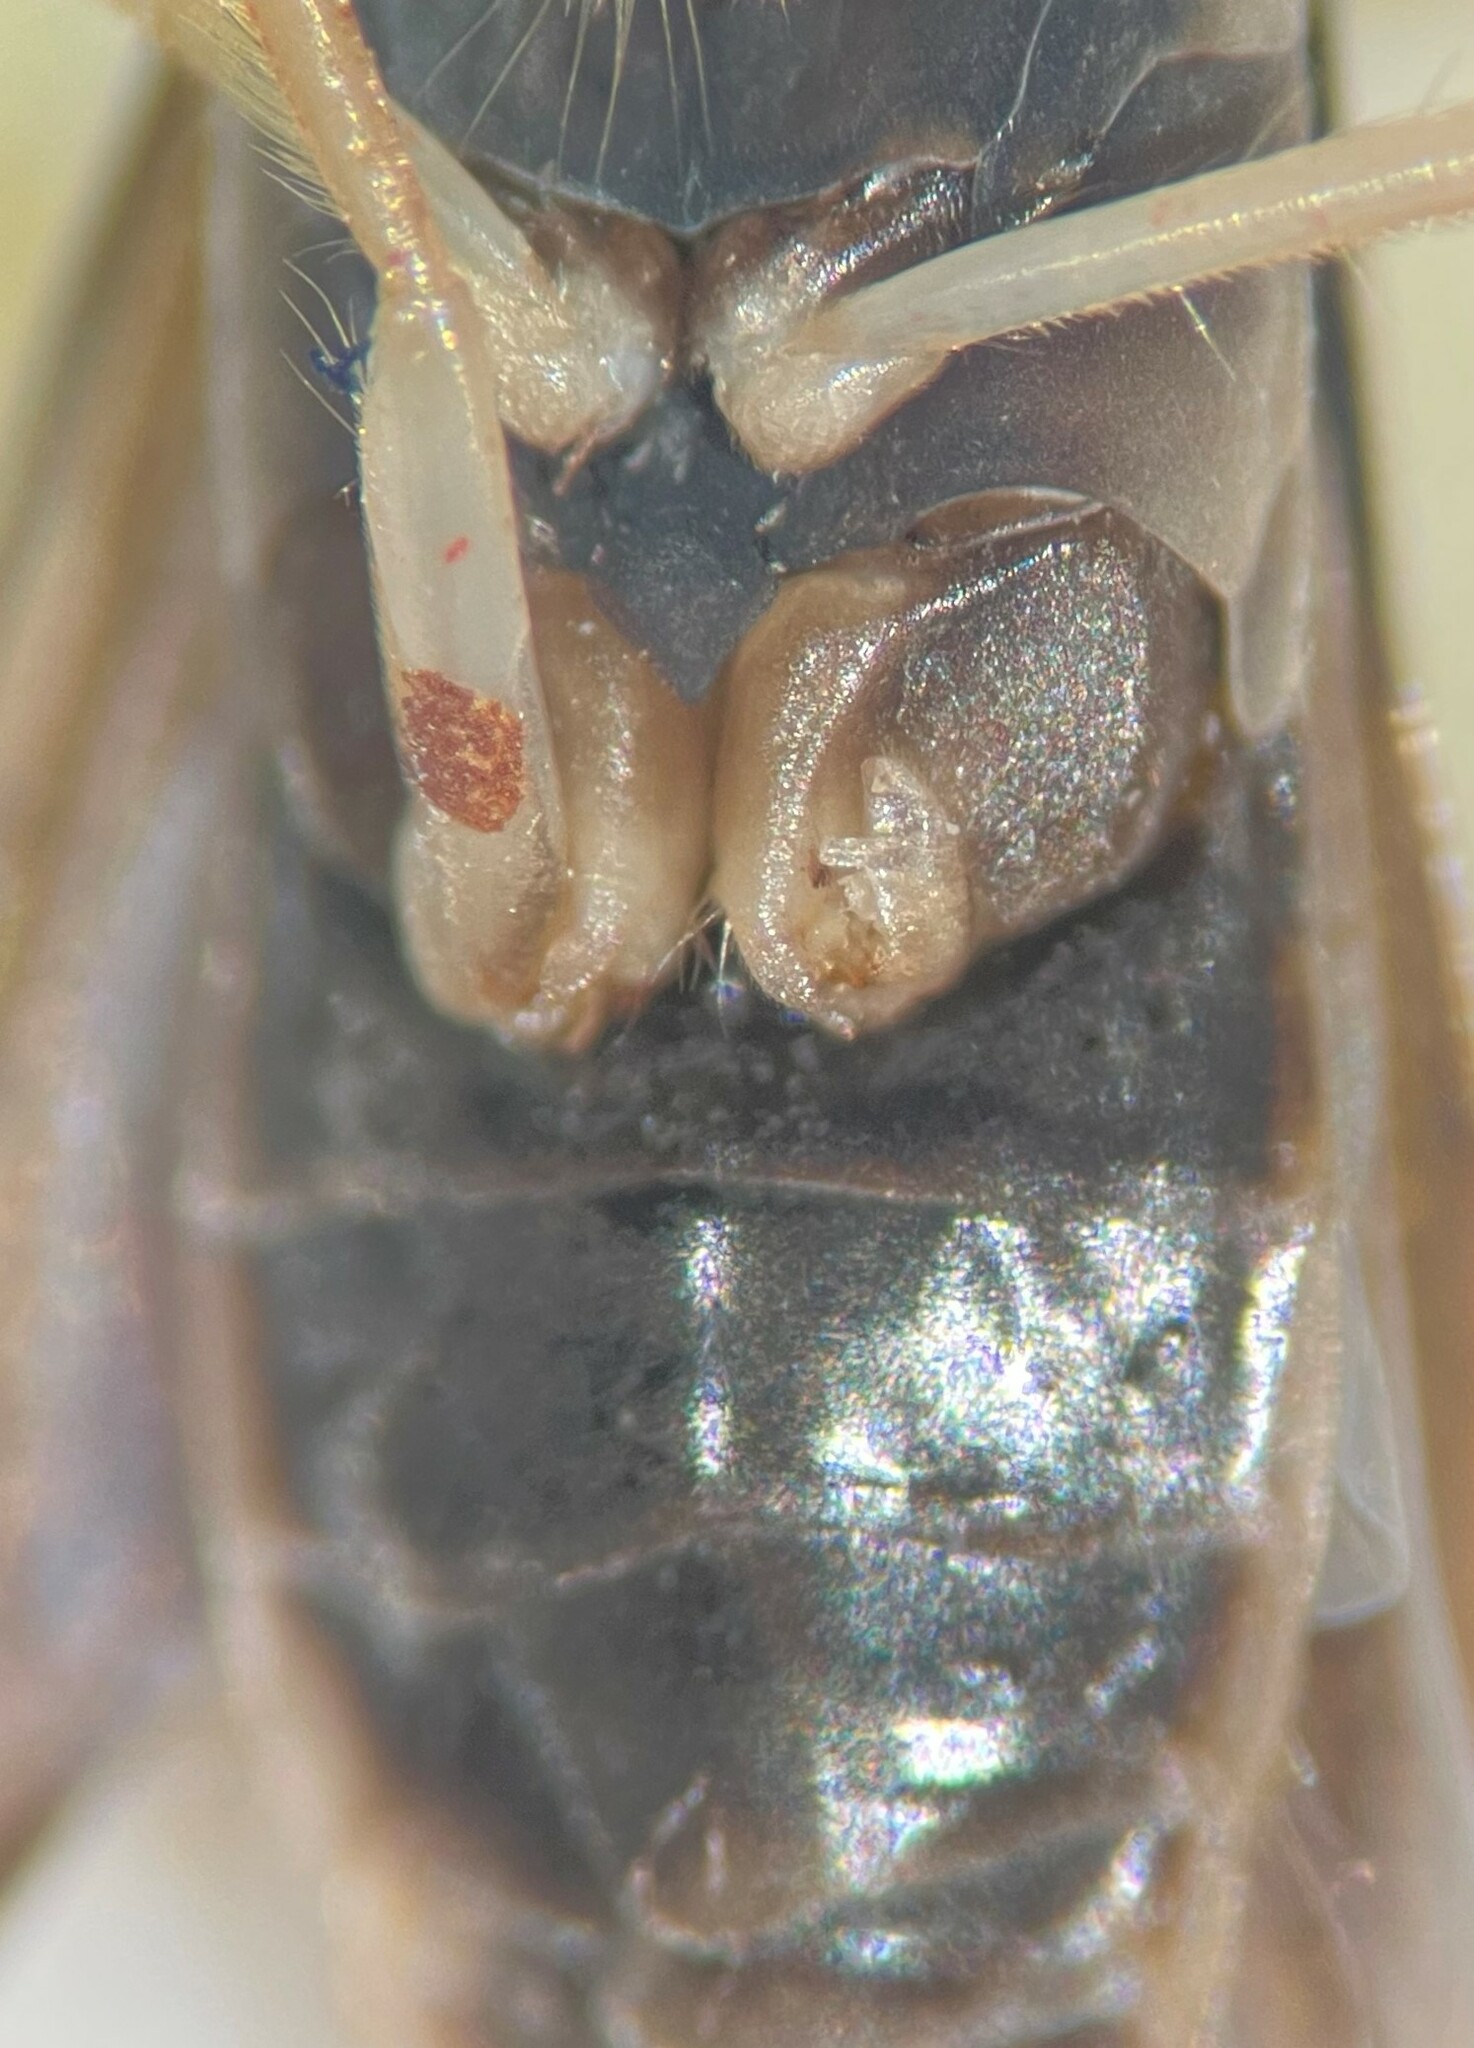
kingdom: Animalia
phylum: Arthropoda
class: Insecta
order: Hemiptera
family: Corixidae
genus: Sigara
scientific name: Sigara alternata
